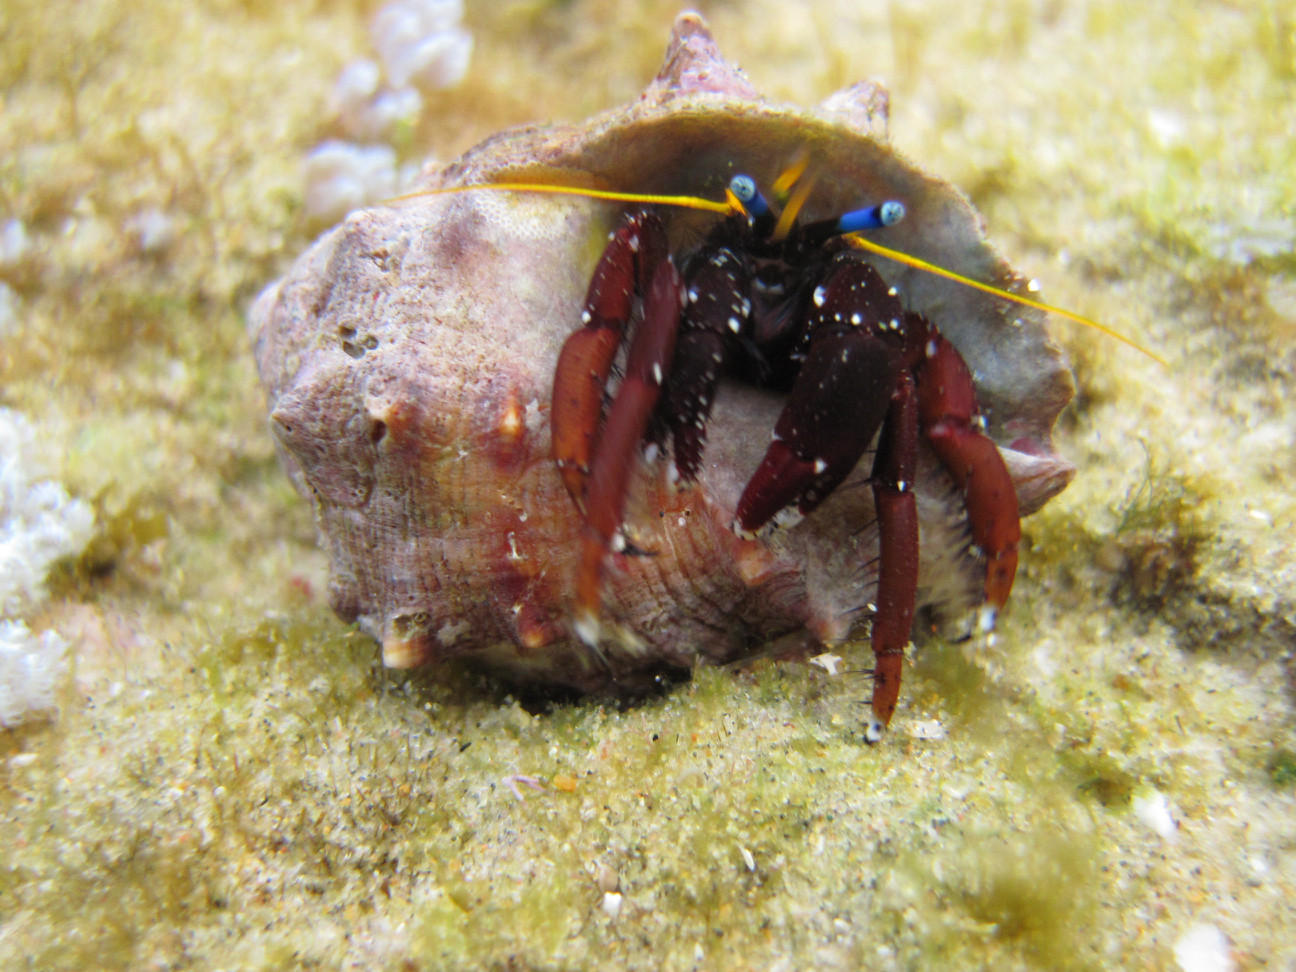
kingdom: Animalia
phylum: Arthropoda
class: Malacostraca
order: Decapoda
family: Diogenidae
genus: Calcinus
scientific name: Calcinus morgani
